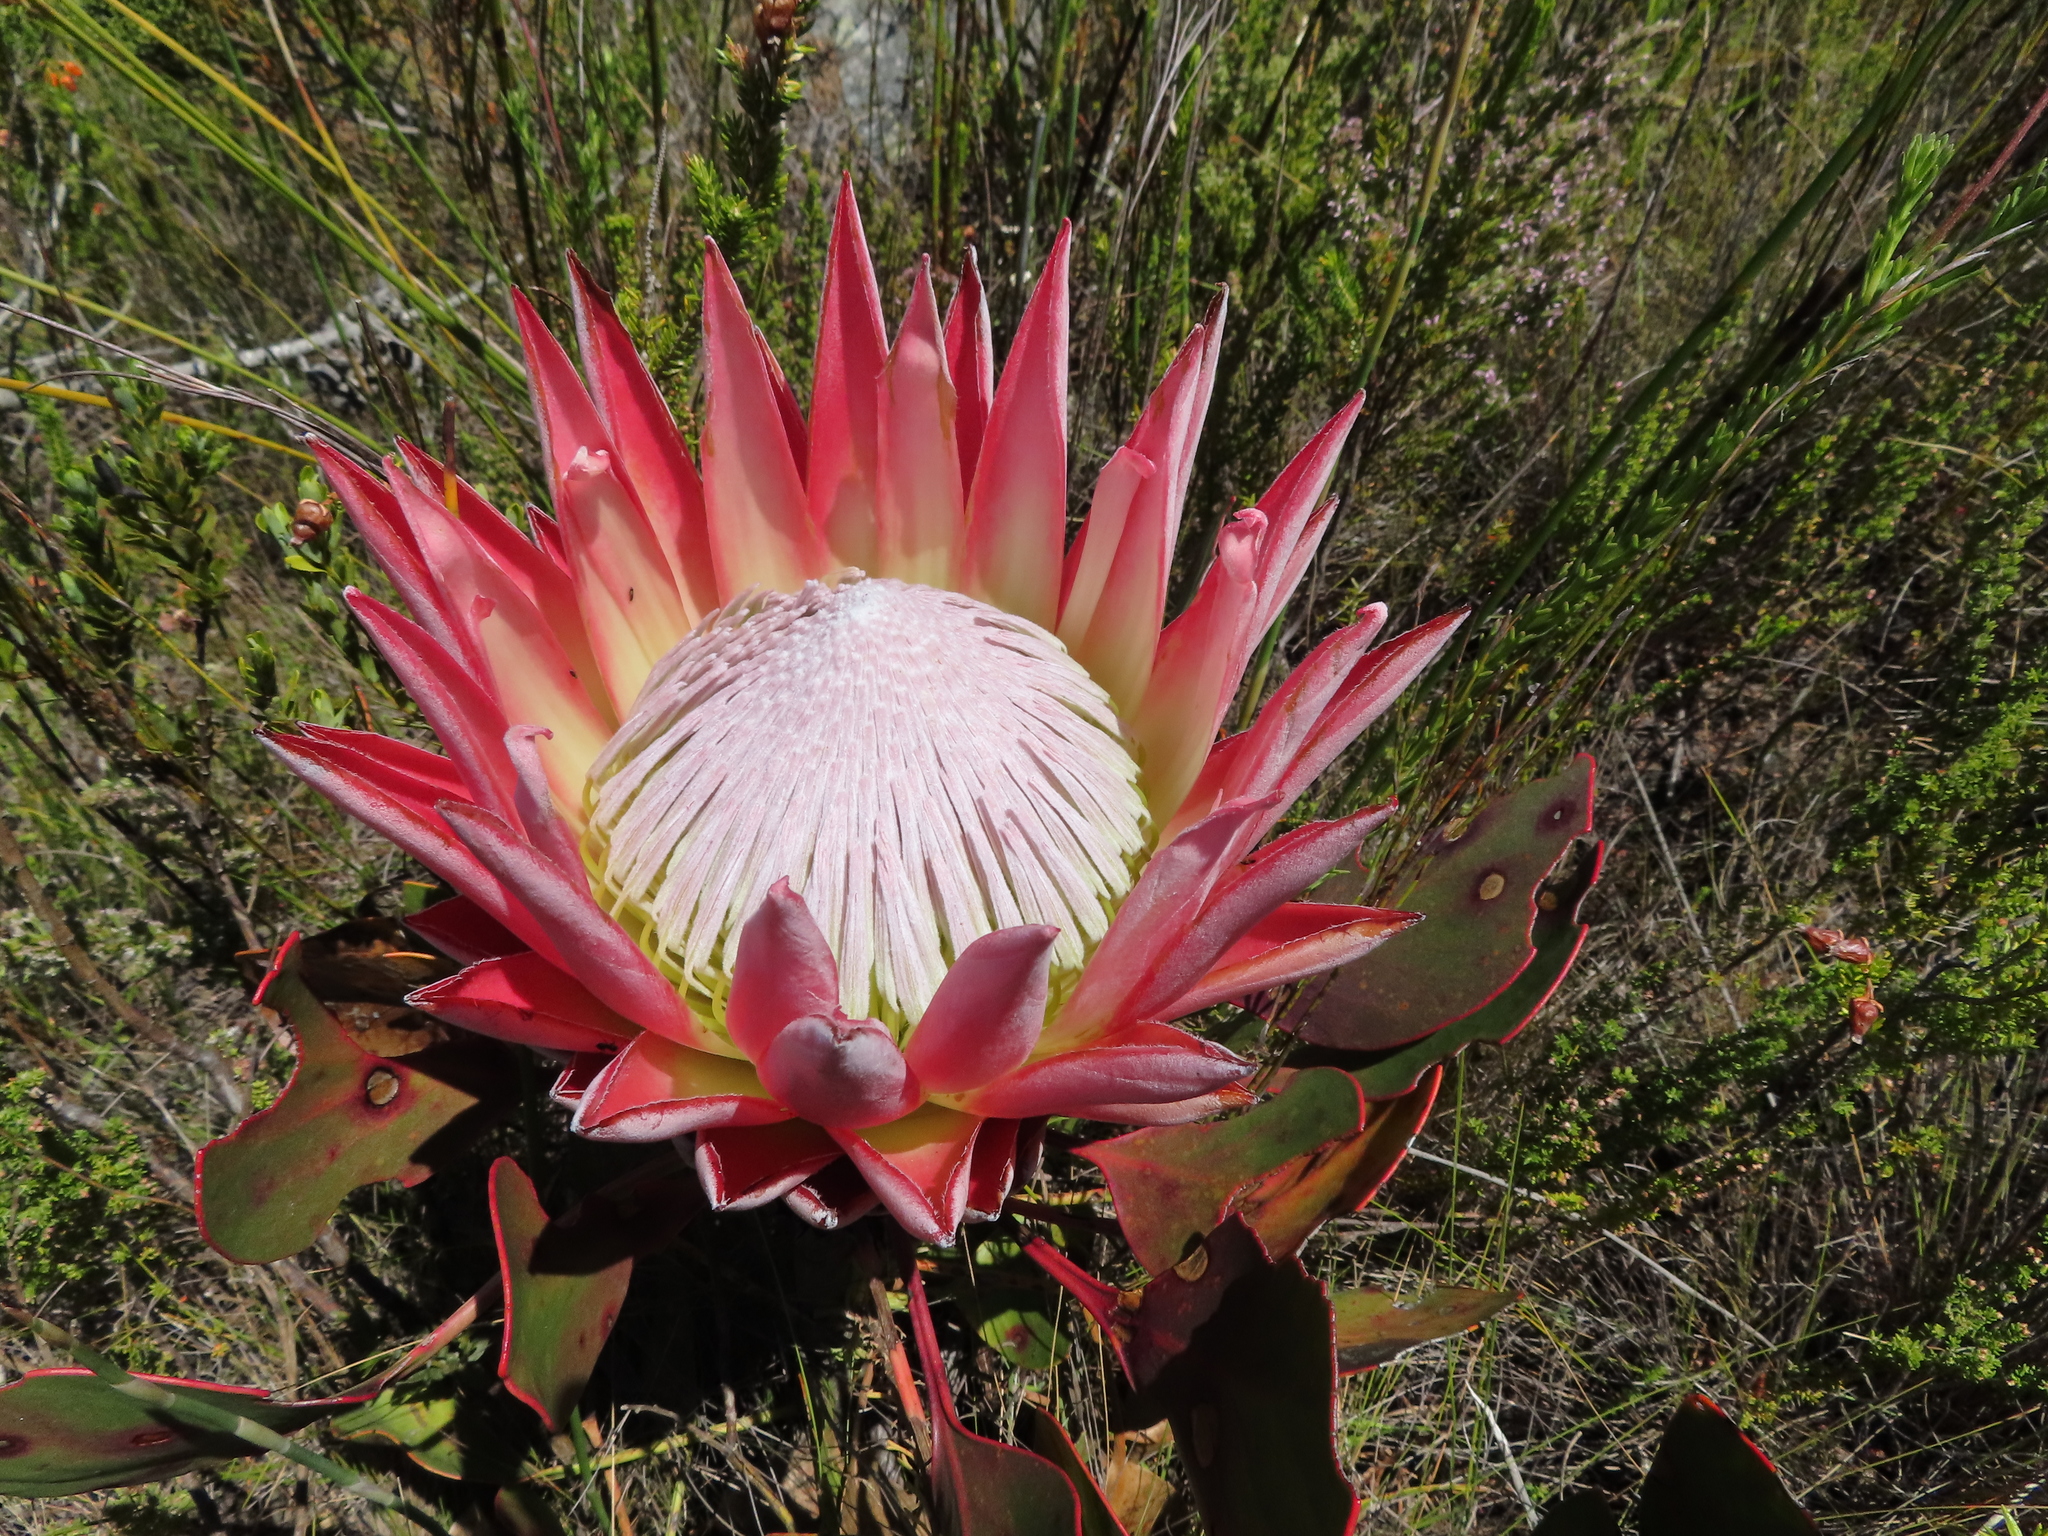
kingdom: Plantae
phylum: Tracheophyta
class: Magnoliopsida
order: Proteales
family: Proteaceae
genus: Protea
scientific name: Protea cynaroides
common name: King protea
